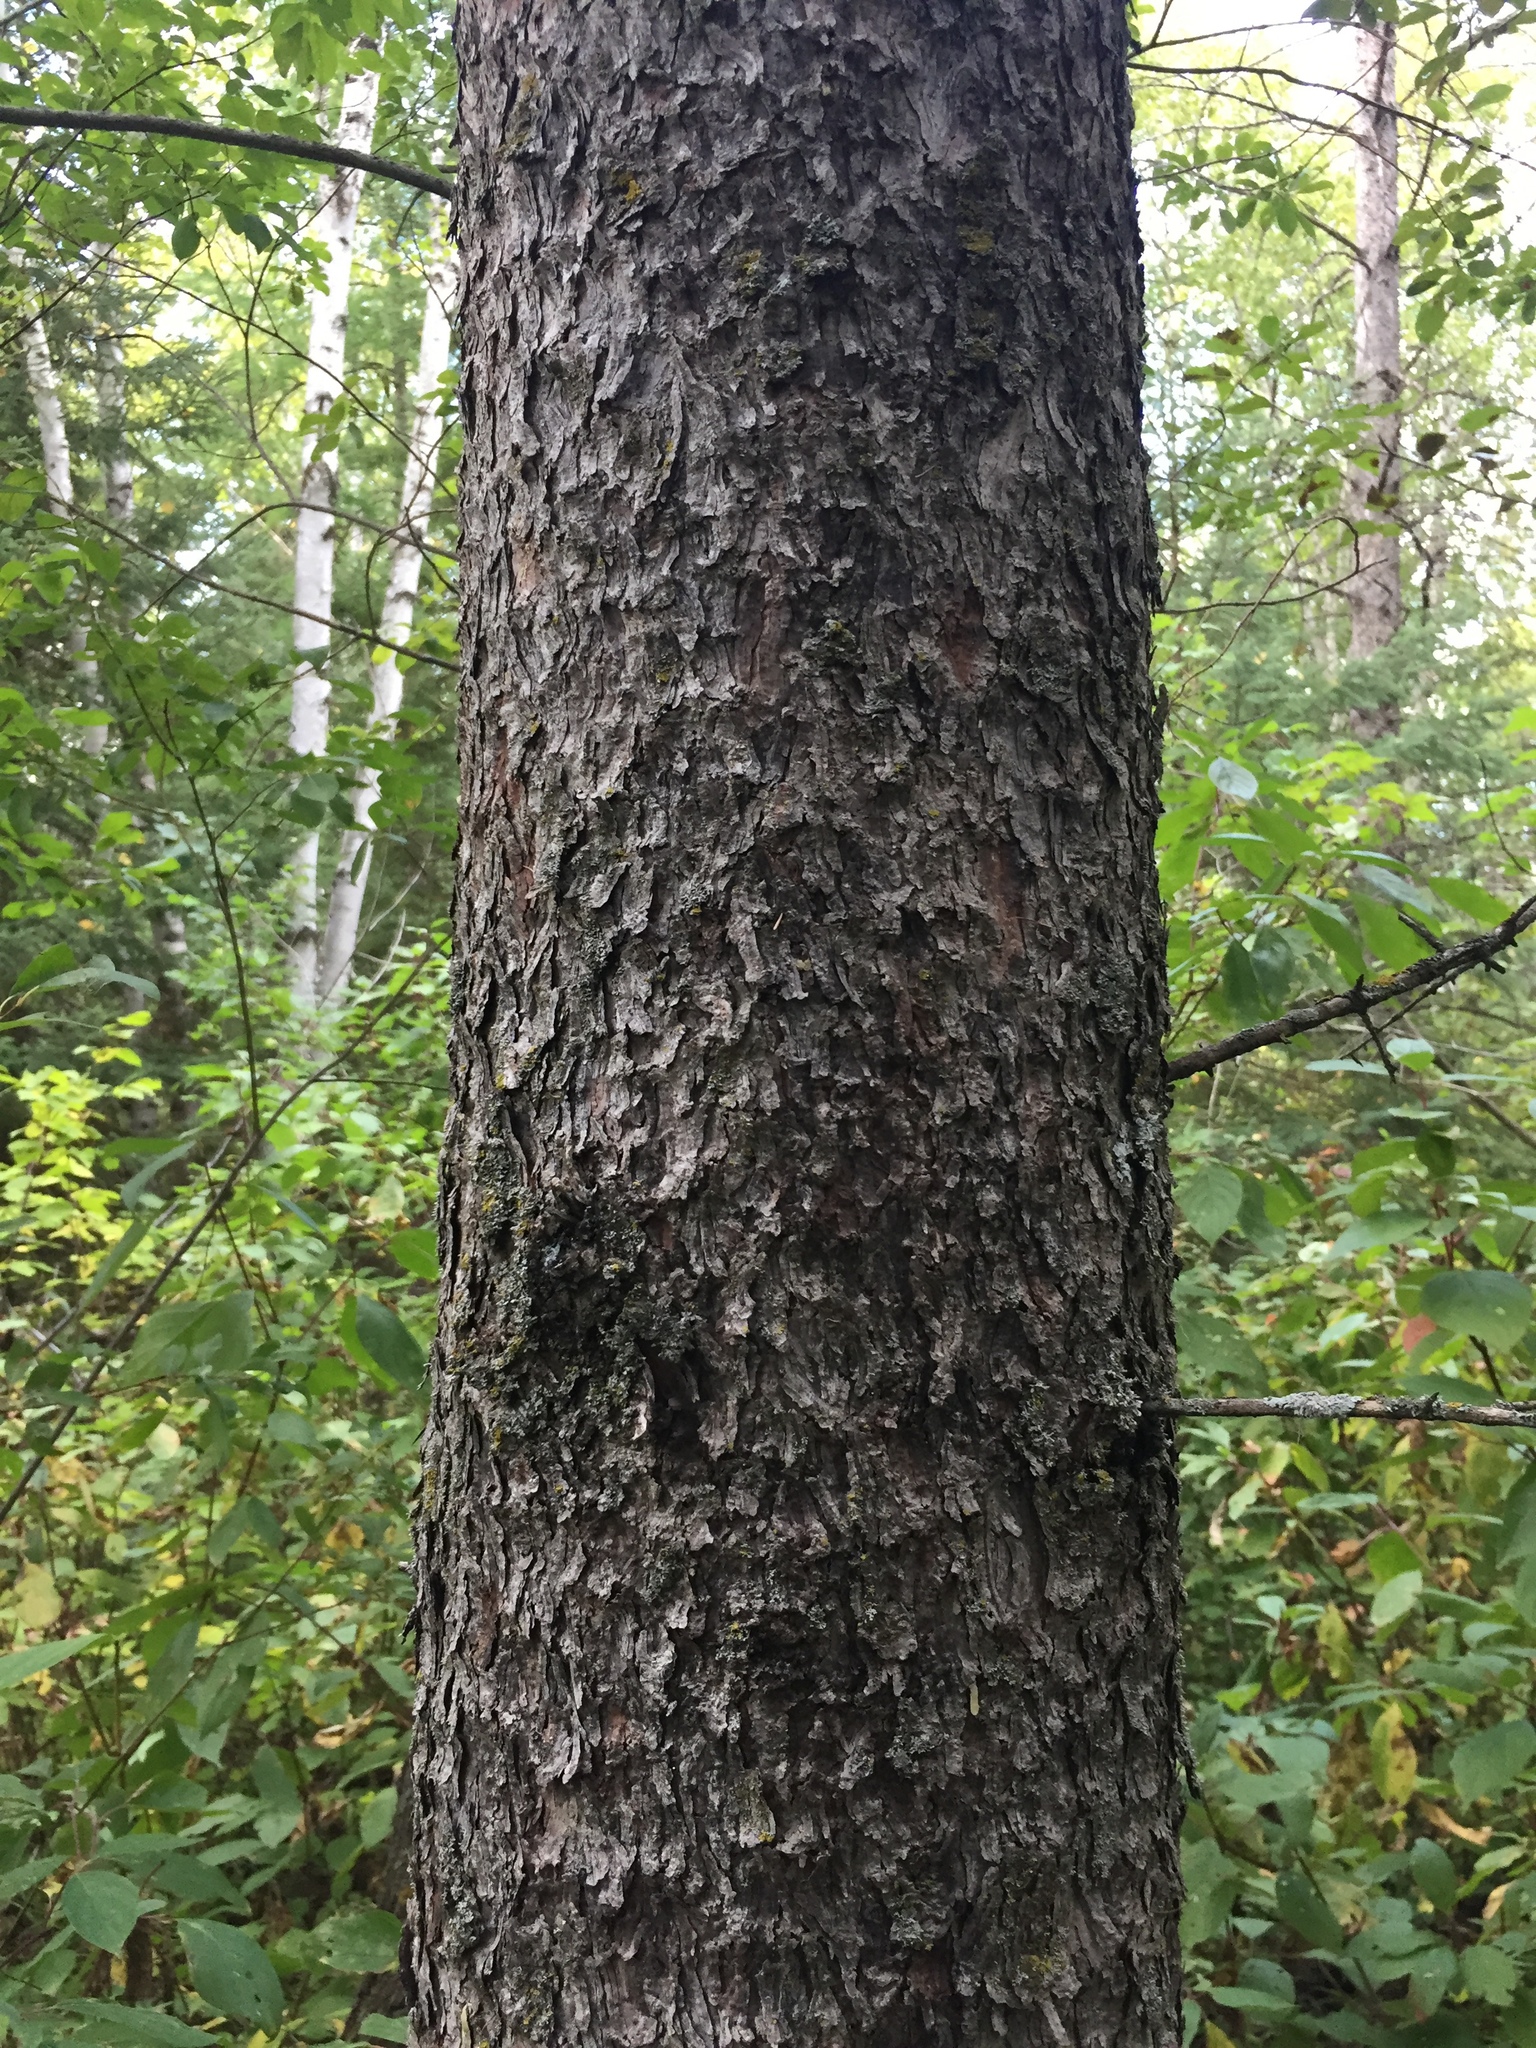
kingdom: Plantae
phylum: Tracheophyta
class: Pinopsida
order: Pinales
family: Pinaceae
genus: Larix
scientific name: Larix laricina
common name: American larch
